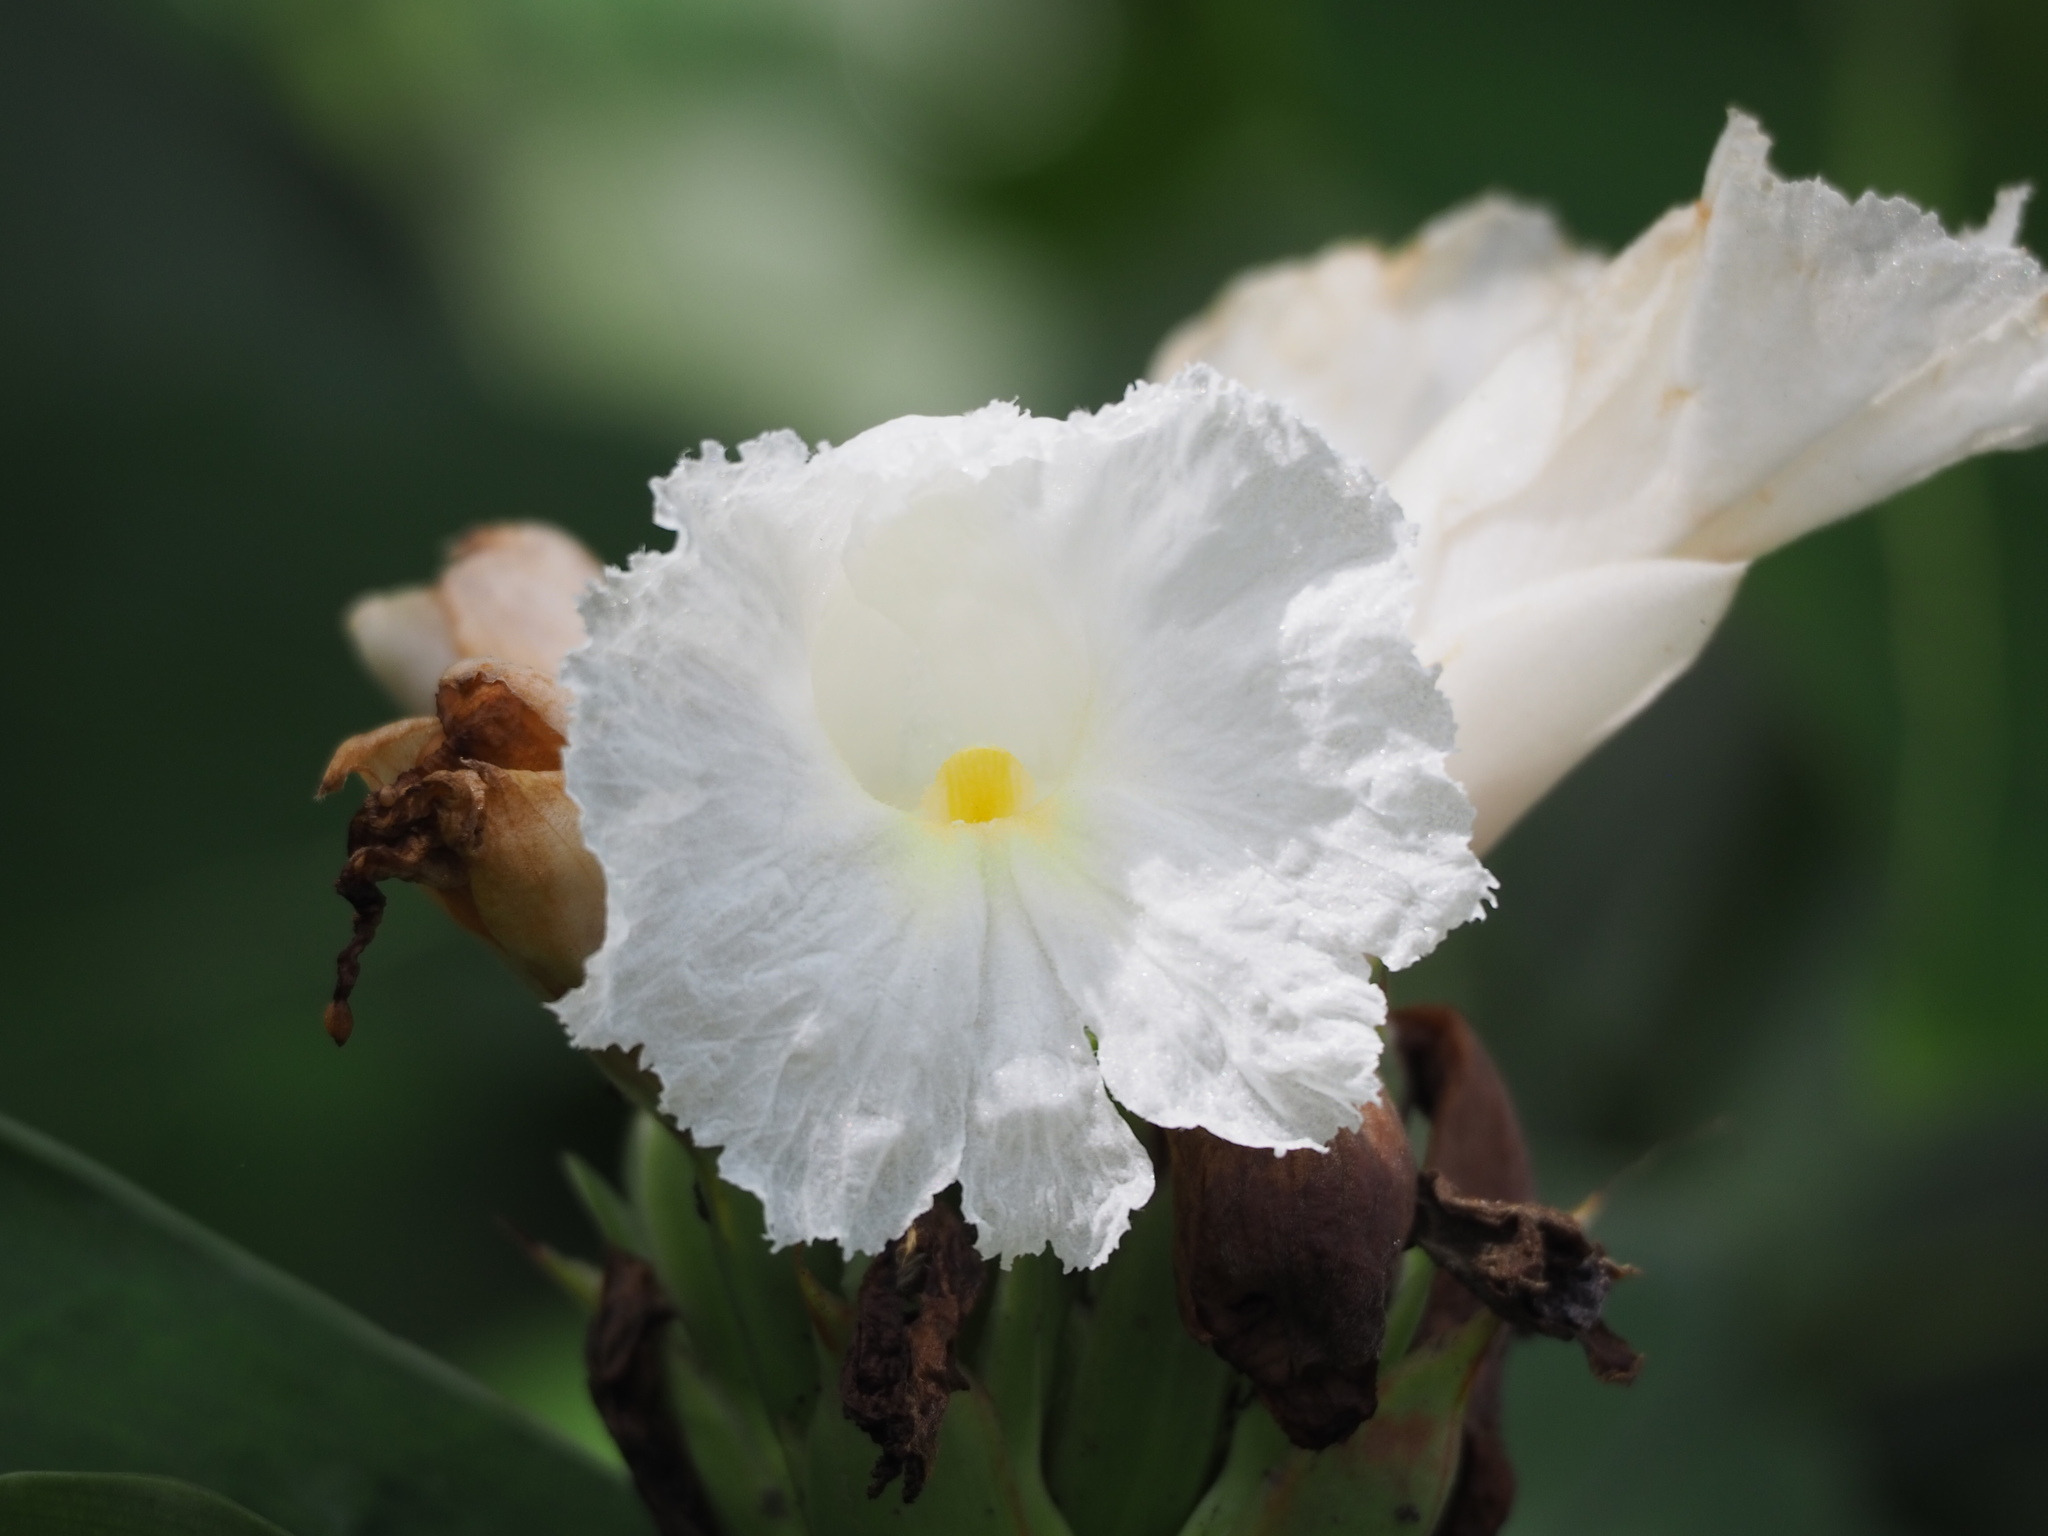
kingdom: Plantae
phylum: Tracheophyta
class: Liliopsida
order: Zingiberales
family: Costaceae
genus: Hellenia
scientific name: Hellenia speciosa
